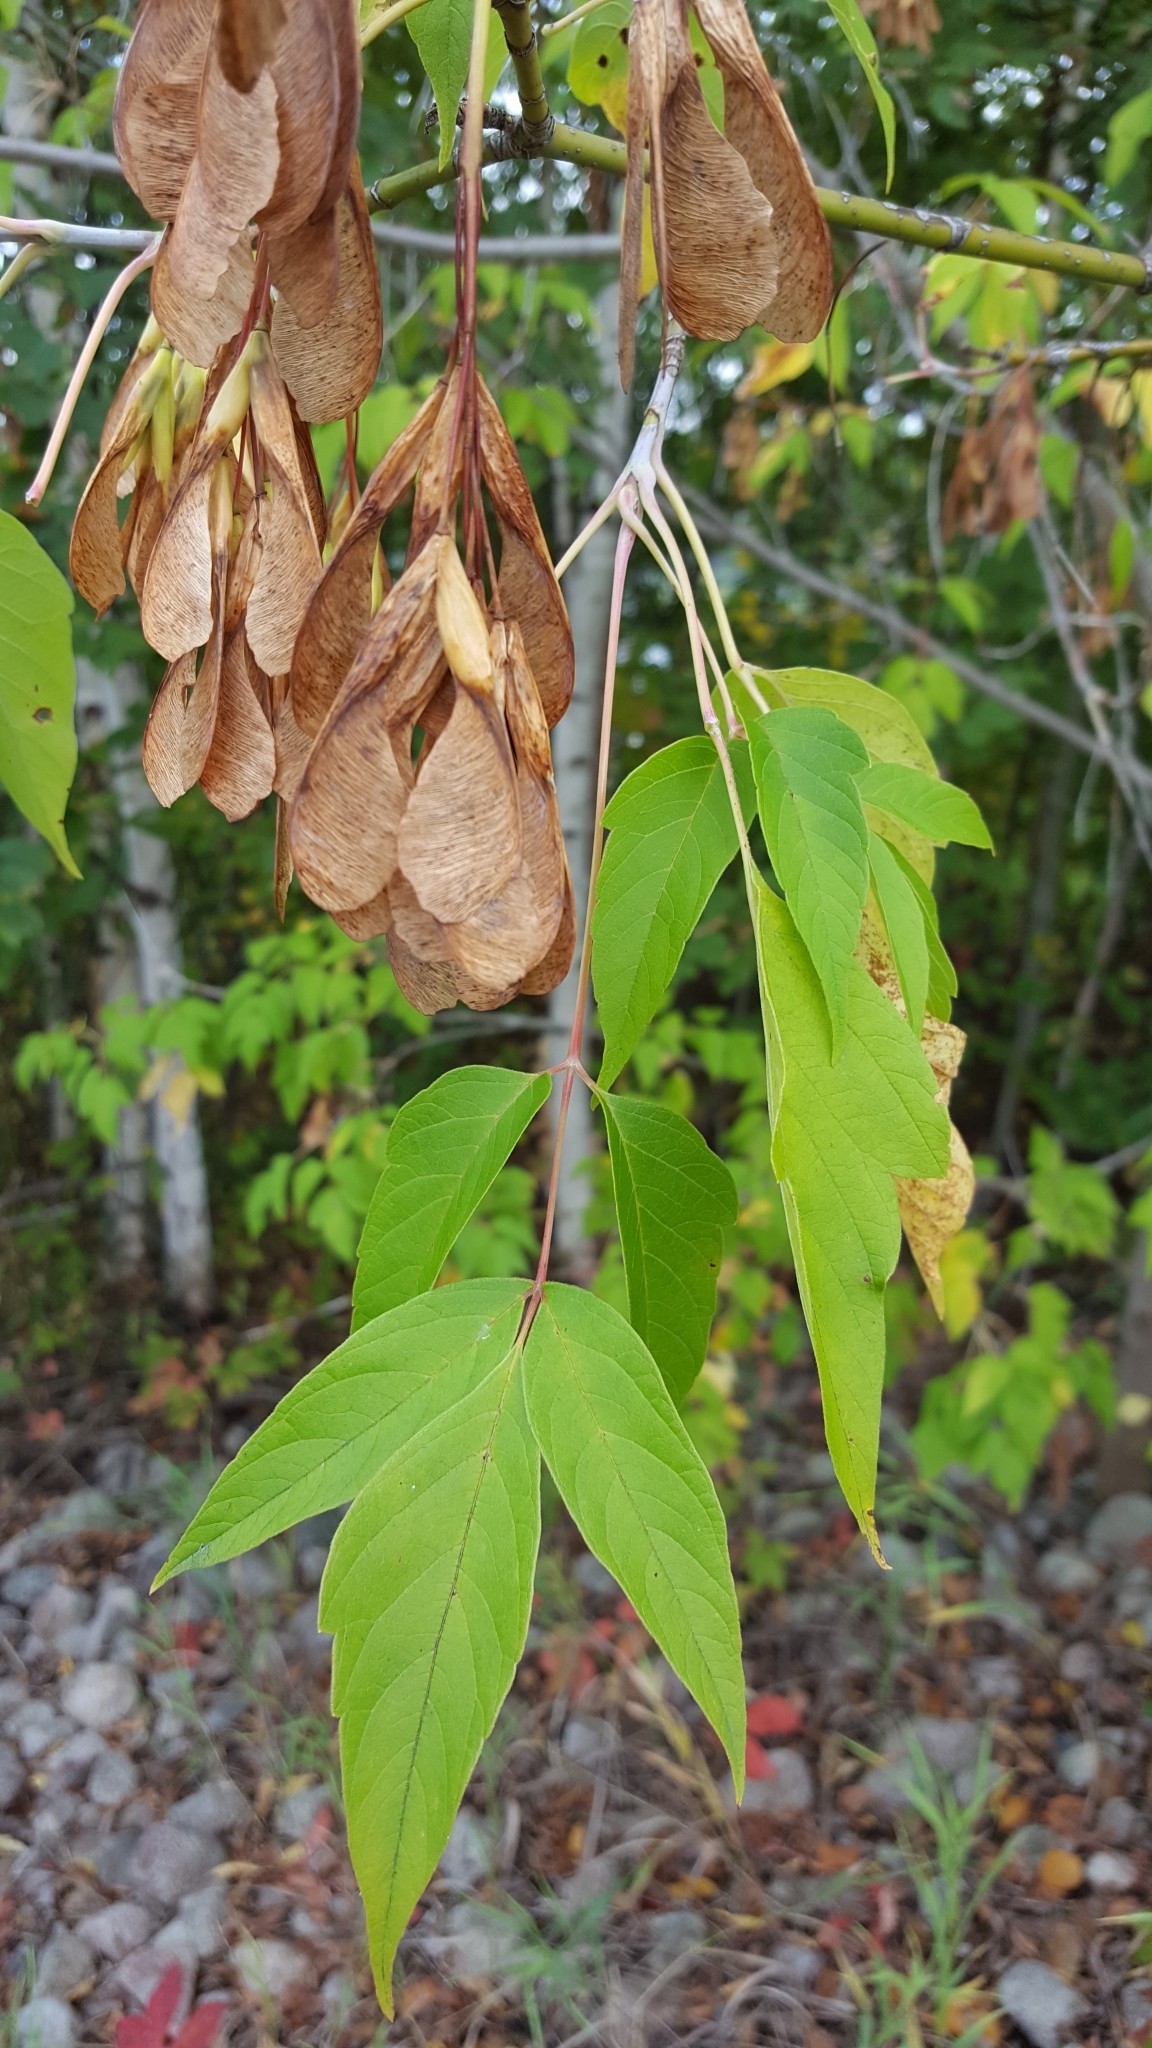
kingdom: Plantae
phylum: Tracheophyta
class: Magnoliopsida
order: Sapindales
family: Sapindaceae
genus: Acer
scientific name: Acer negundo
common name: Ashleaf maple
